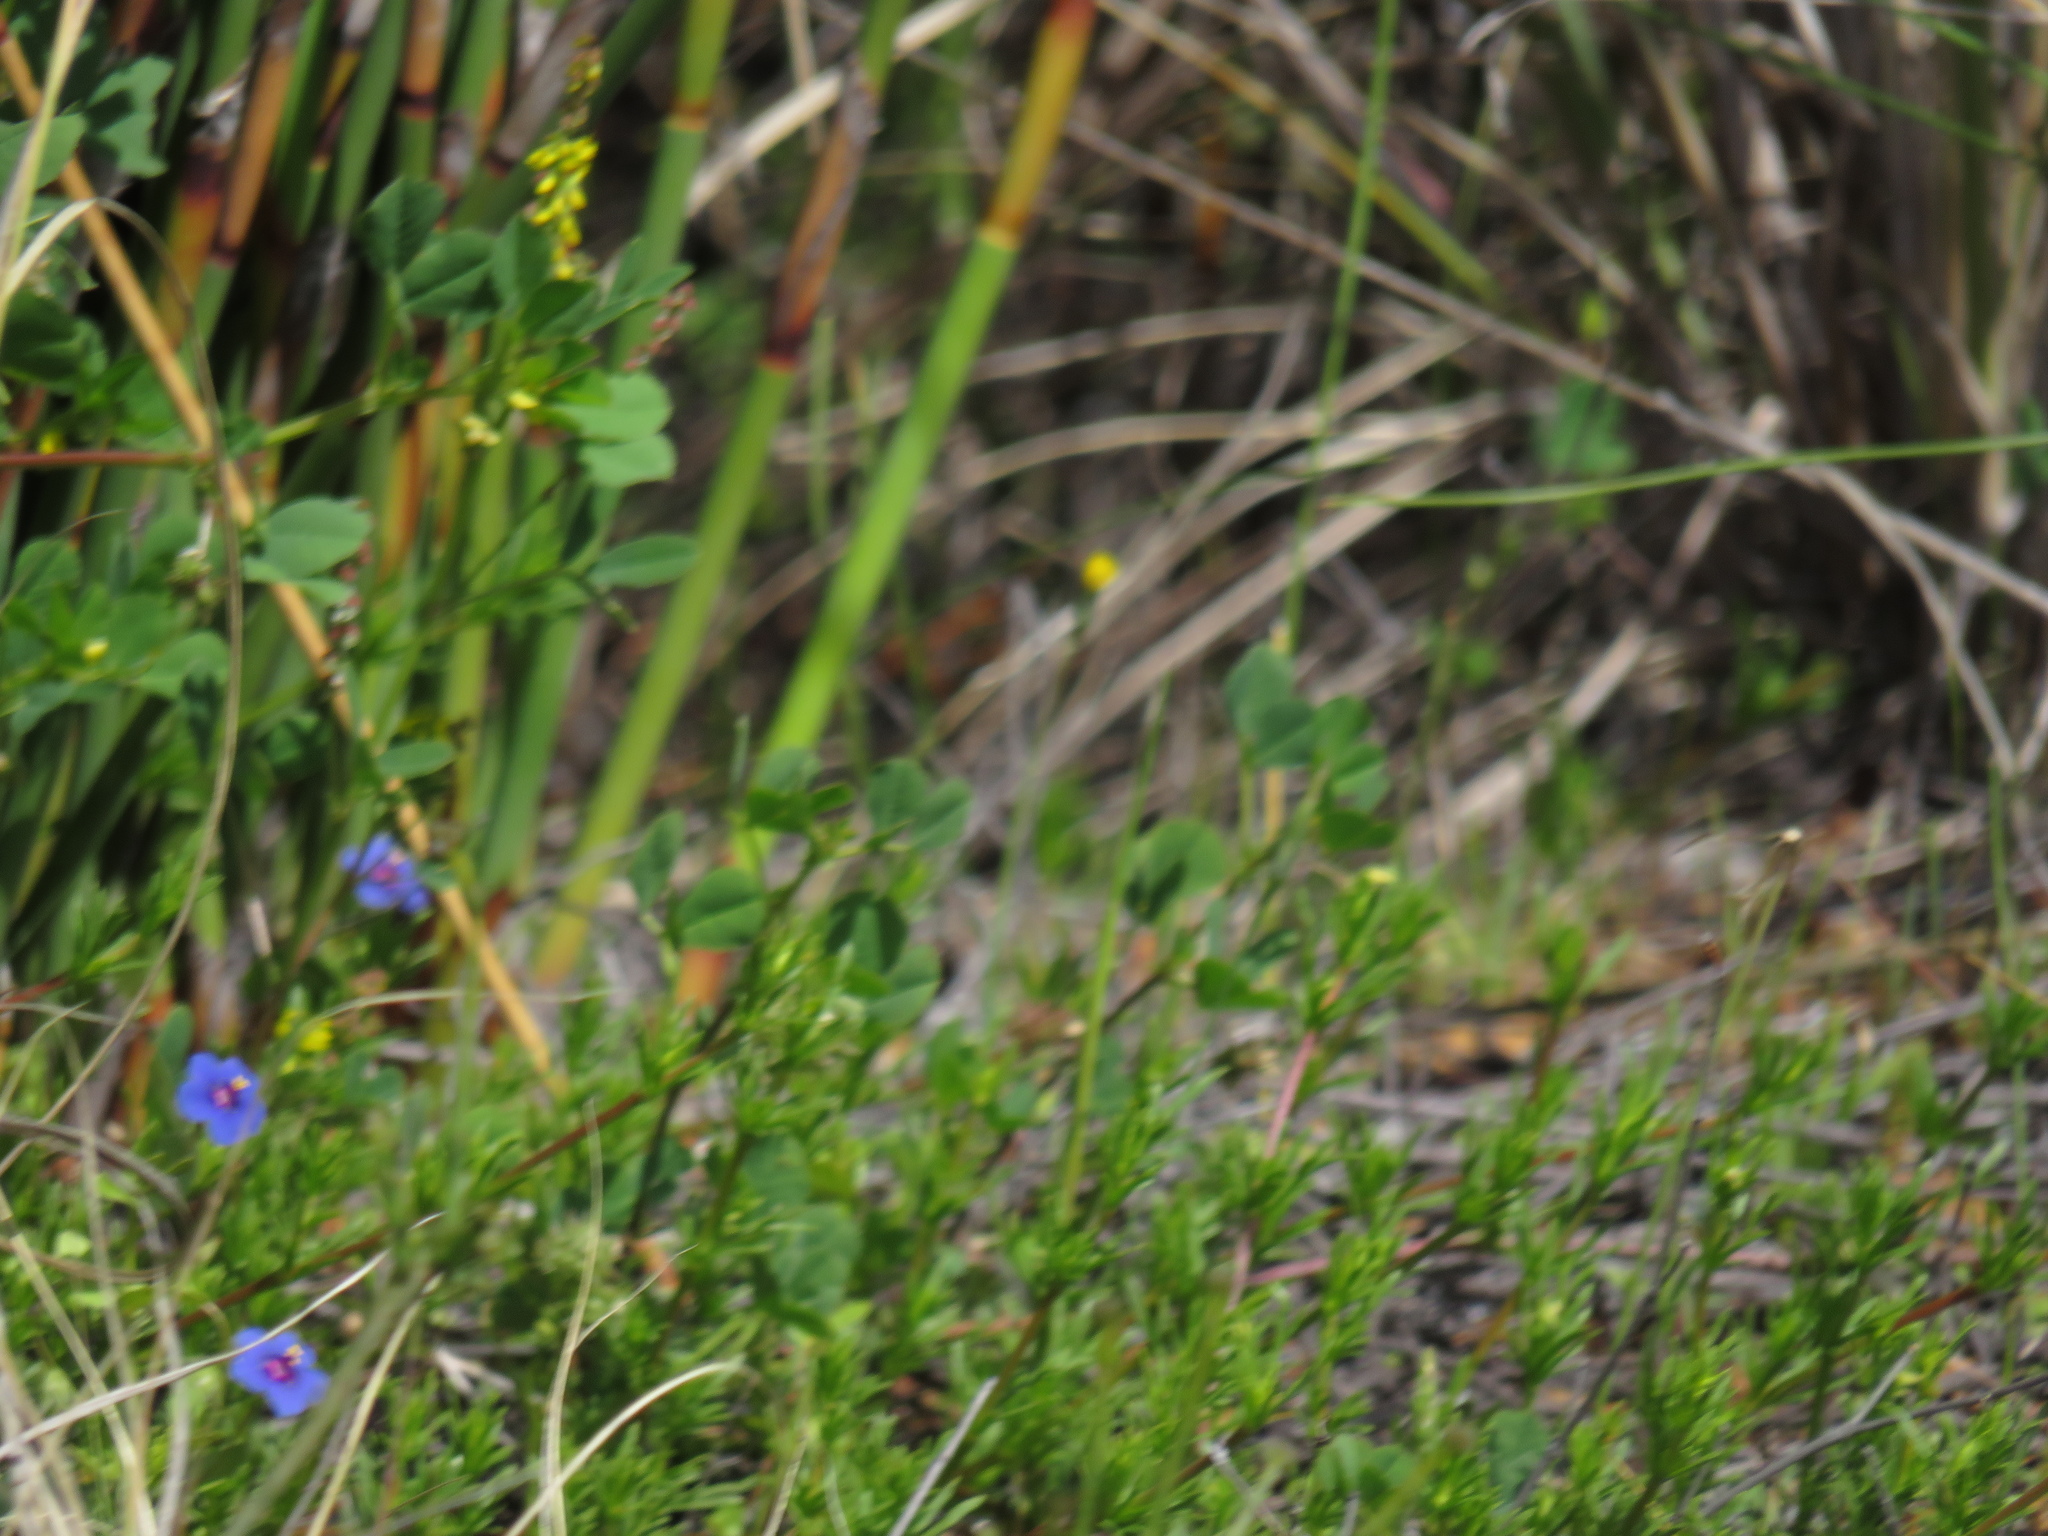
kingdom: Plantae
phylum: Tracheophyta
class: Magnoliopsida
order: Fabales
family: Fabaceae
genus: Melilotus
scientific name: Melilotus indicus
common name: Small melilot
